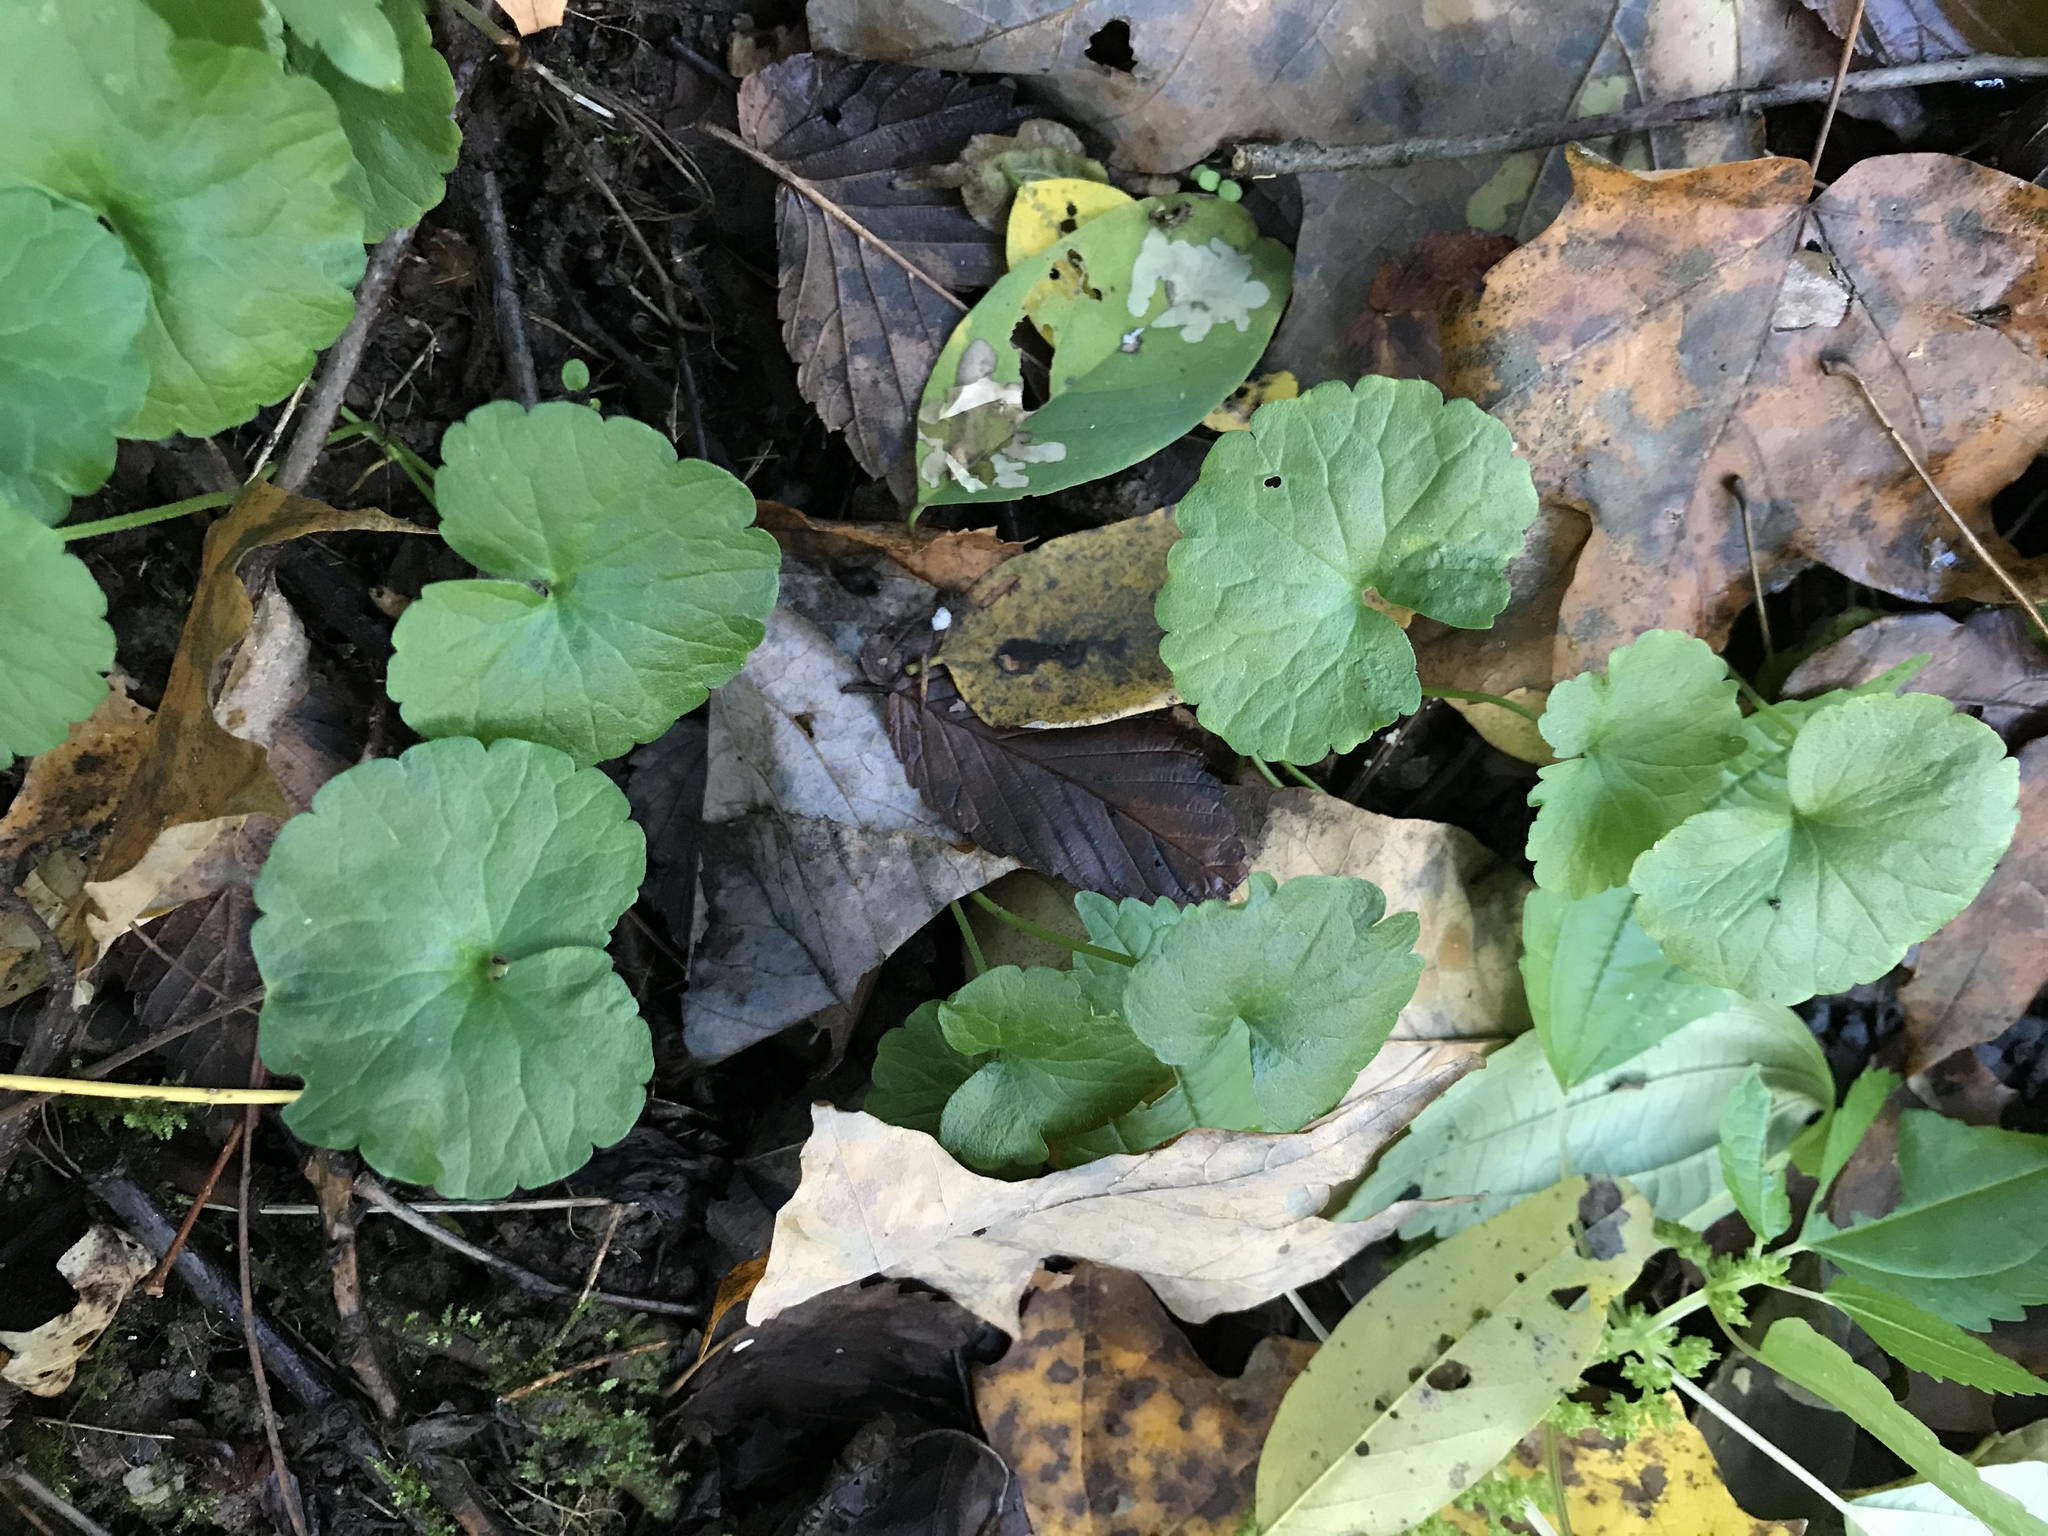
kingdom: Plantae
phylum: Tracheophyta
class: Magnoliopsida
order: Lamiales
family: Lamiaceae
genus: Glechoma
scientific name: Glechoma hederacea
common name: Ground ivy
